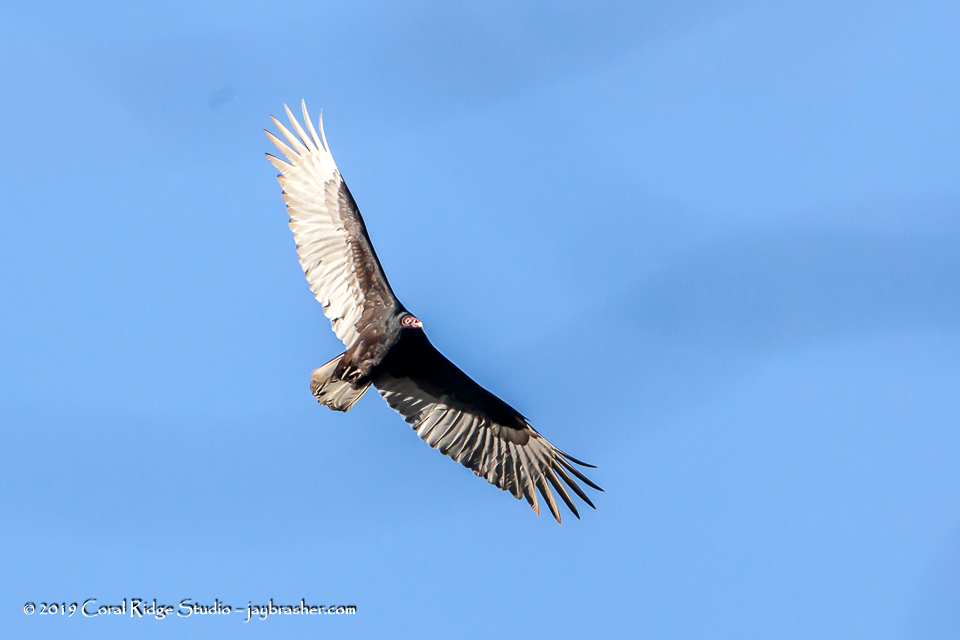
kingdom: Animalia
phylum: Chordata
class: Aves
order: Accipitriformes
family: Cathartidae
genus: Cathartes
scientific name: Cathartes aura
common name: Turkey vulture
